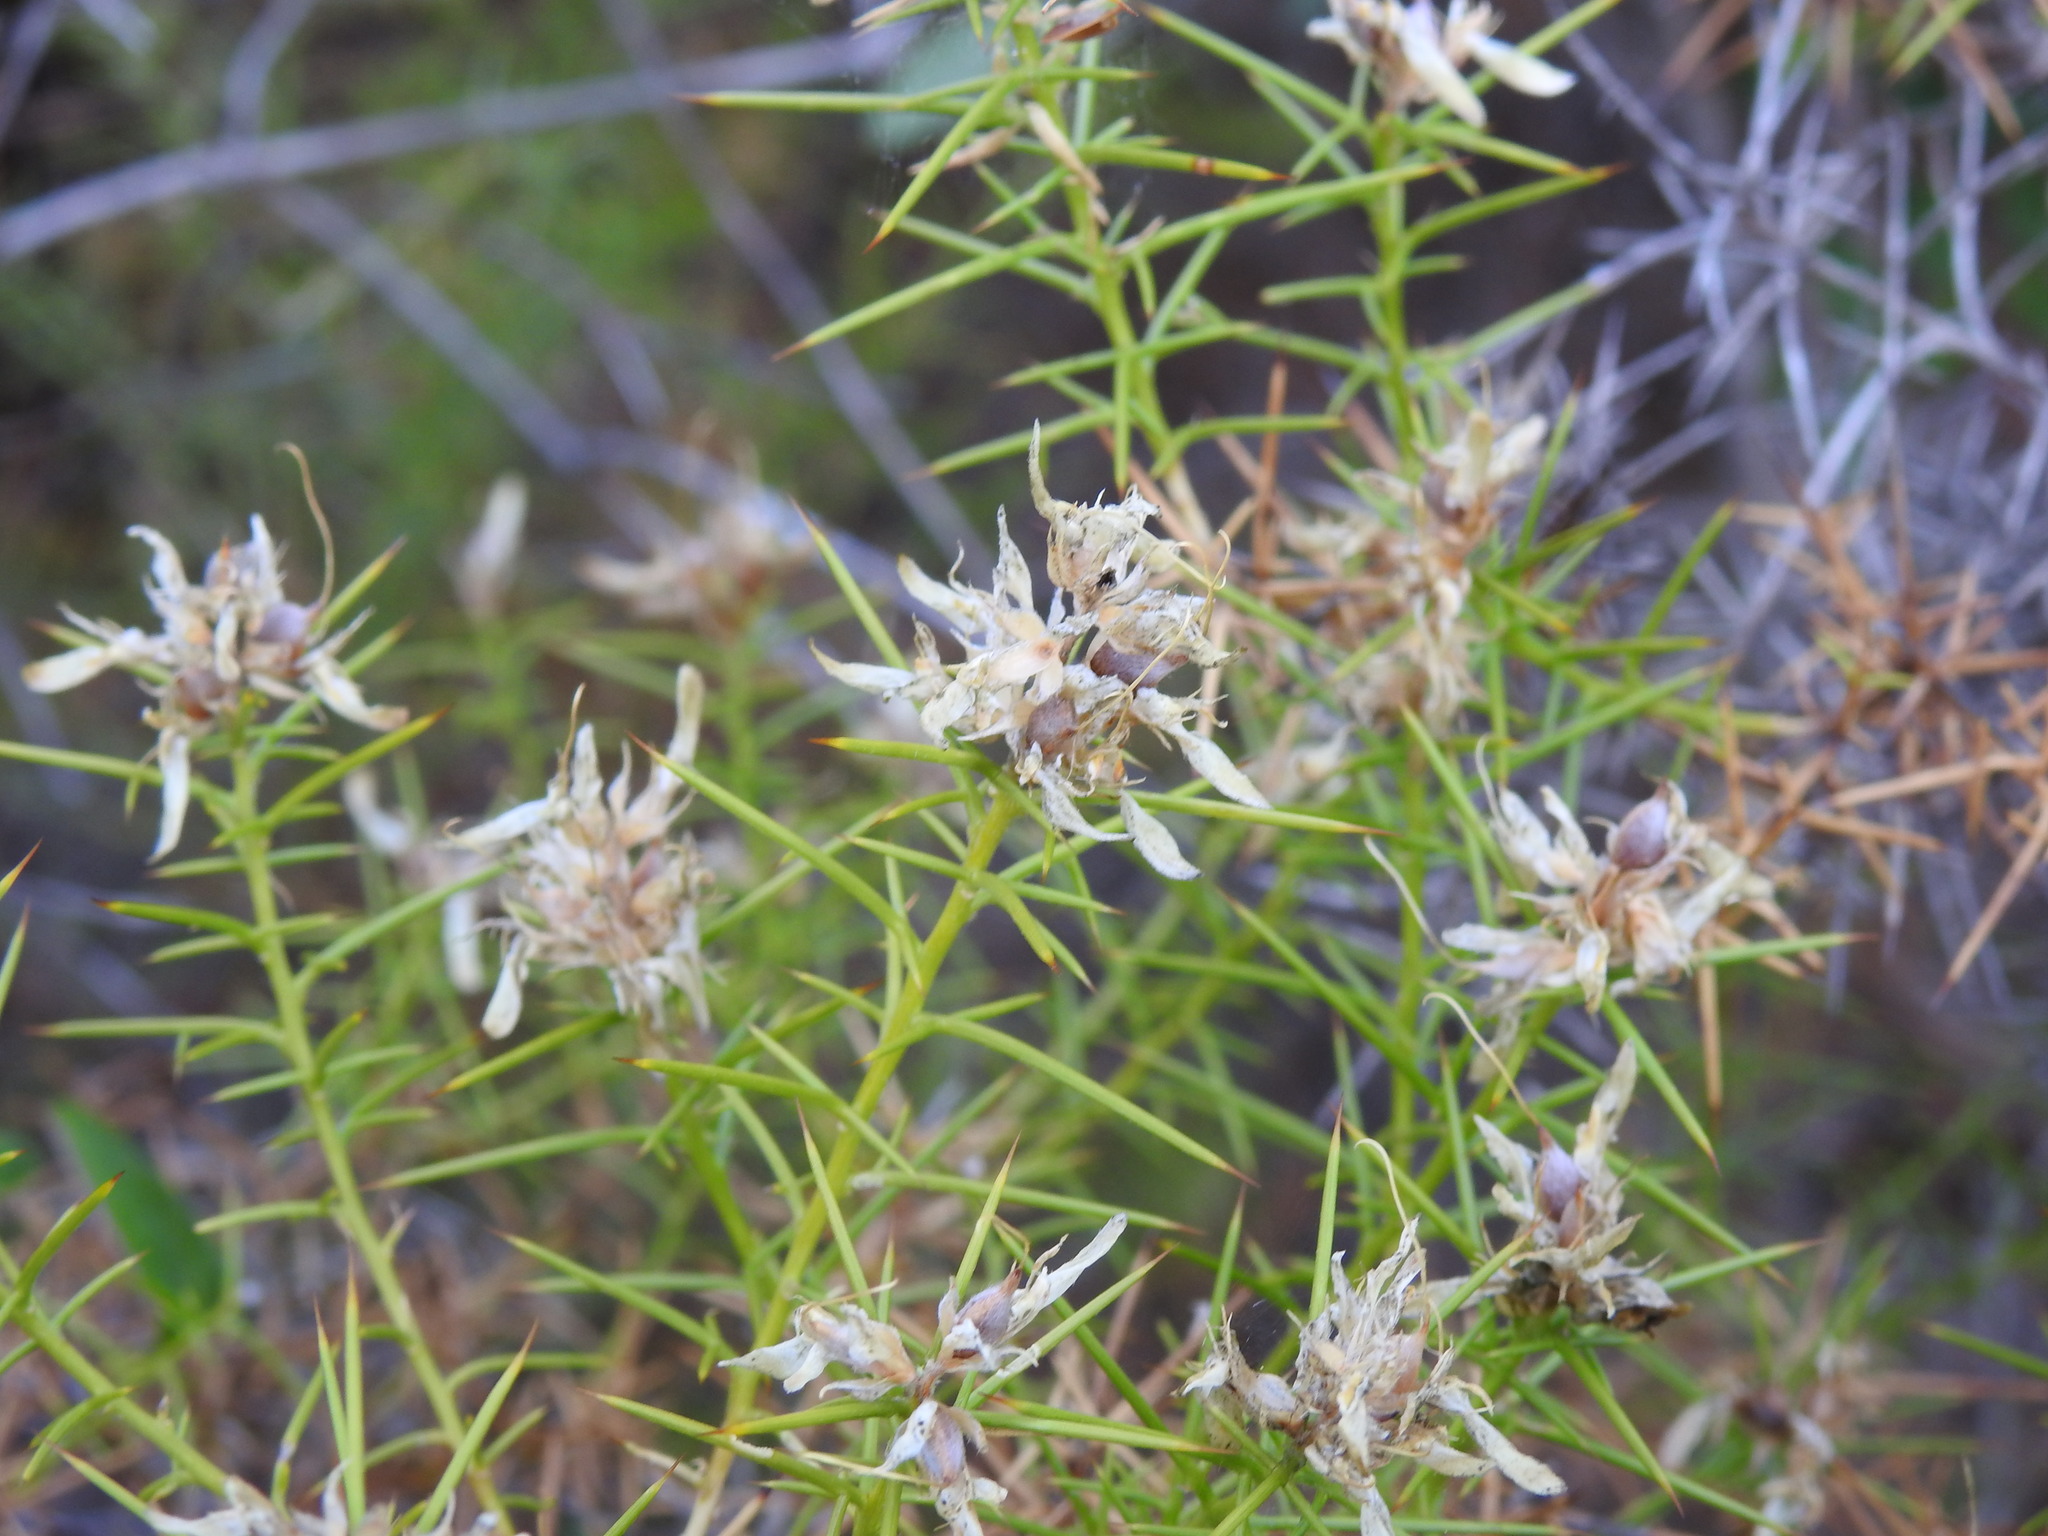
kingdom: Plantae
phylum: Tracheophyta
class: Magnoliopsida
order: Fabales
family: Fabaceae
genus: Genista
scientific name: Genista hirsuta
